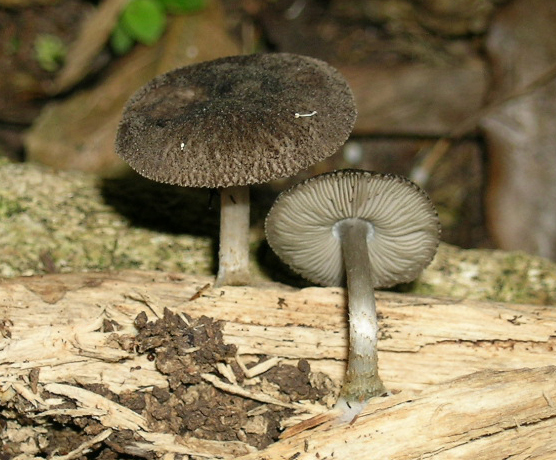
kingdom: Fungi
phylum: Basidiomycota
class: Agaricomycetes
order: Agaricales
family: Pluteaceae
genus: Pluteus
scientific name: Pluteus velutinornatus
